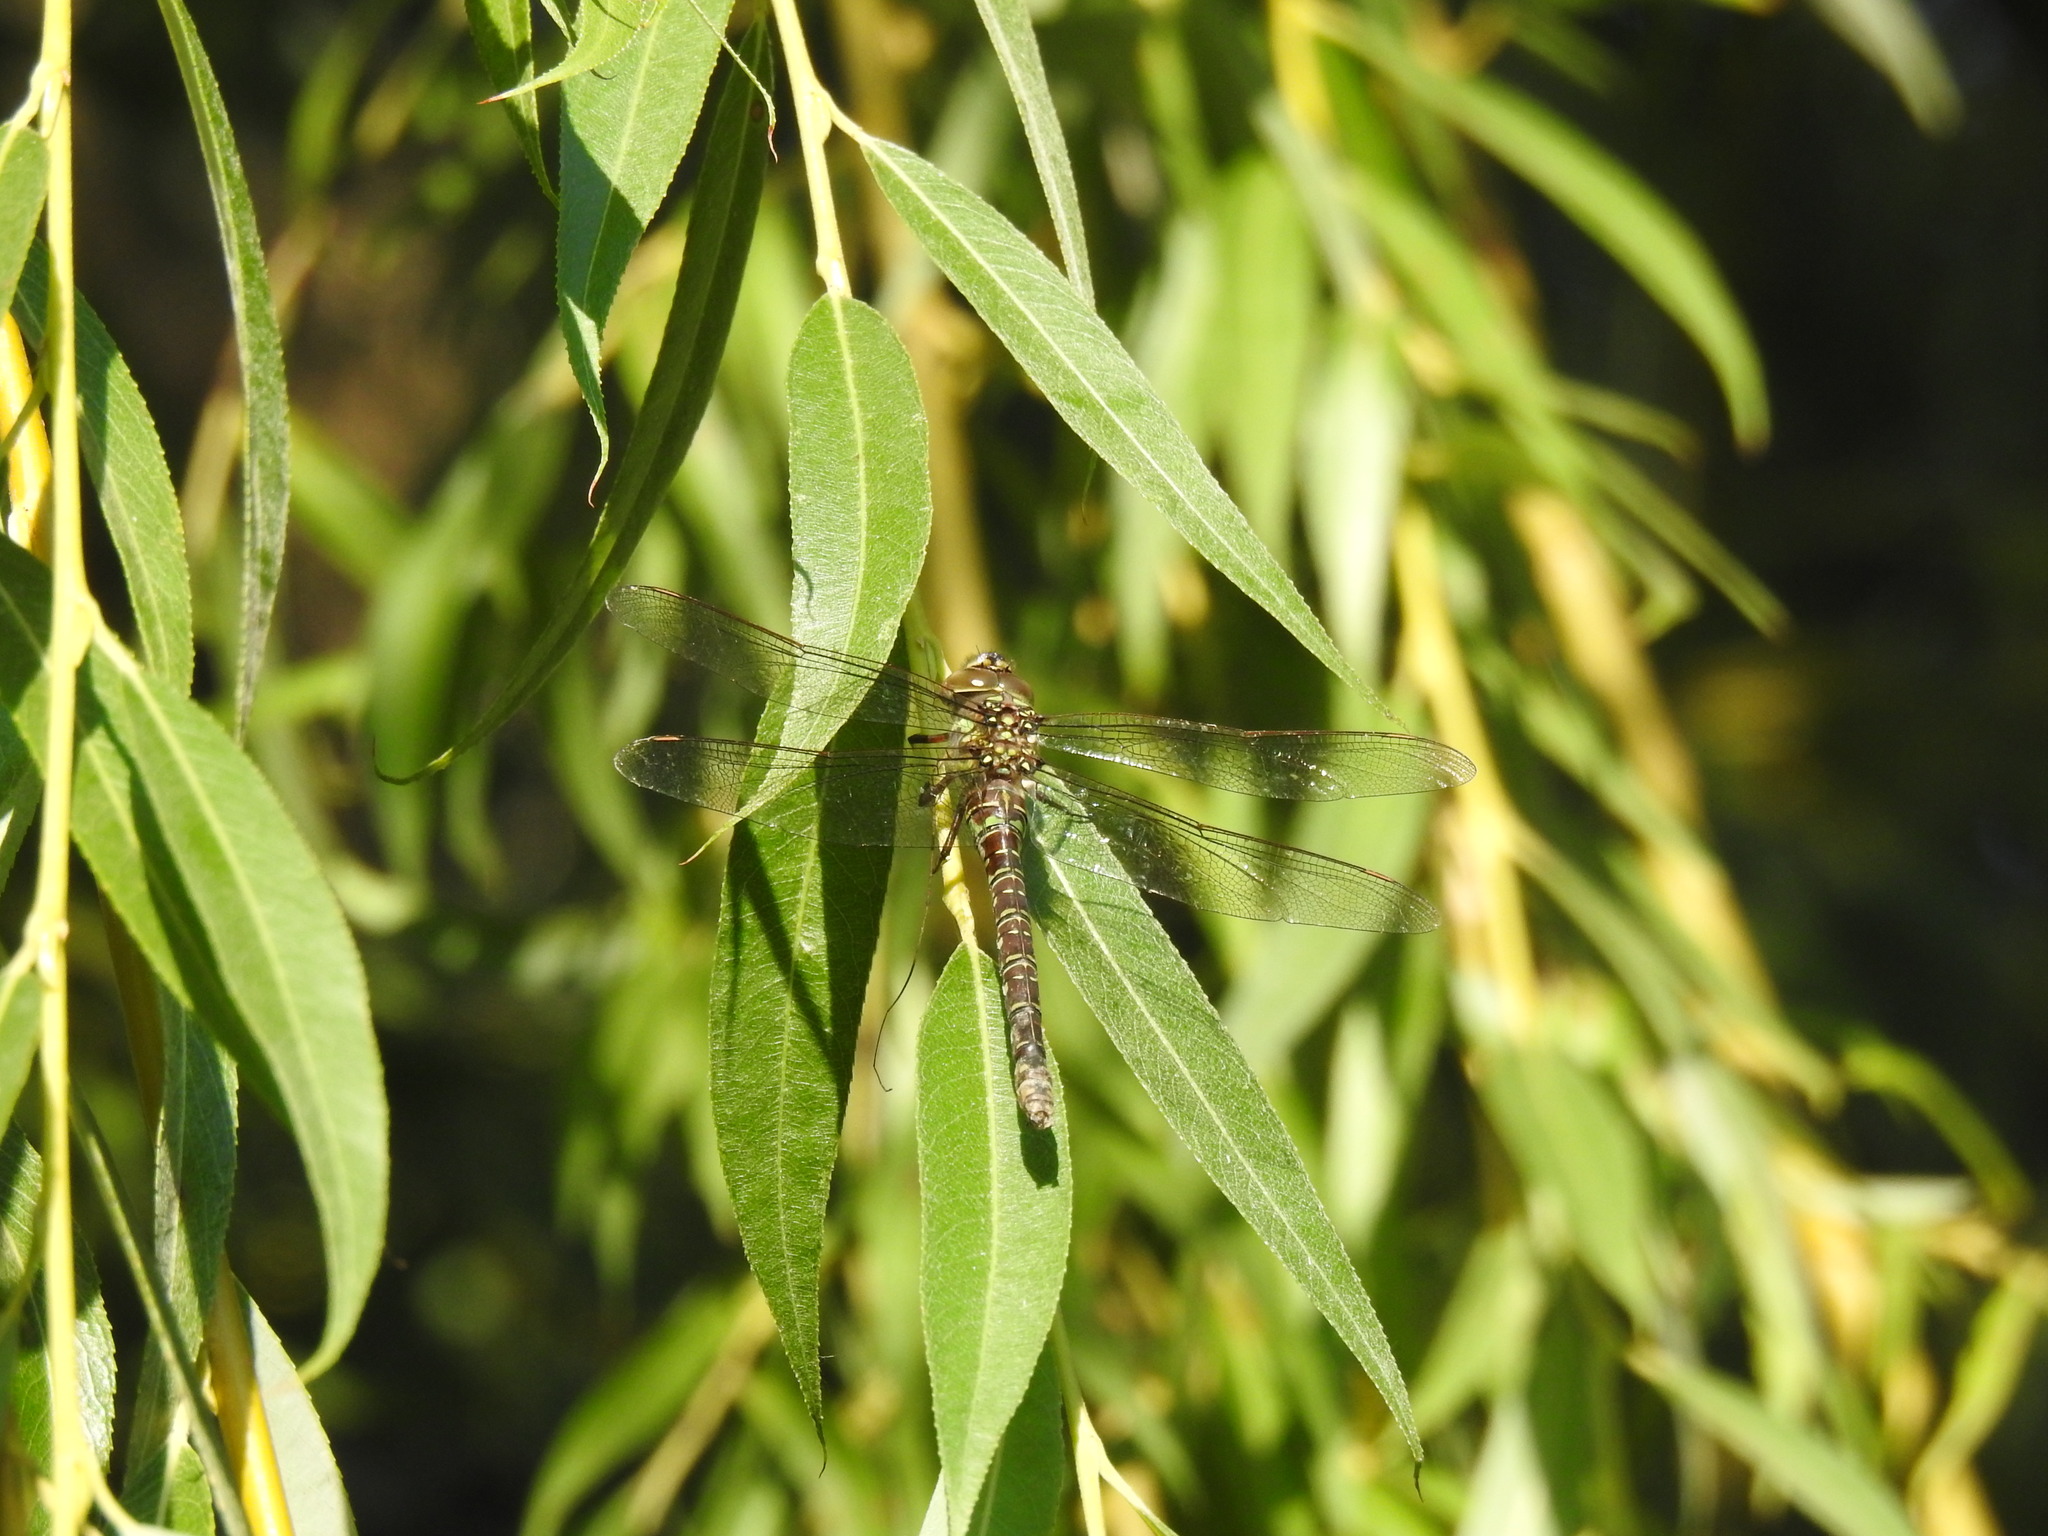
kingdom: Animalia
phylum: Arthropoda
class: Insecta
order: Odonata
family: Aeshnidae
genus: Aeshna
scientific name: Aeshna umbrosa
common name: Shadow darner
